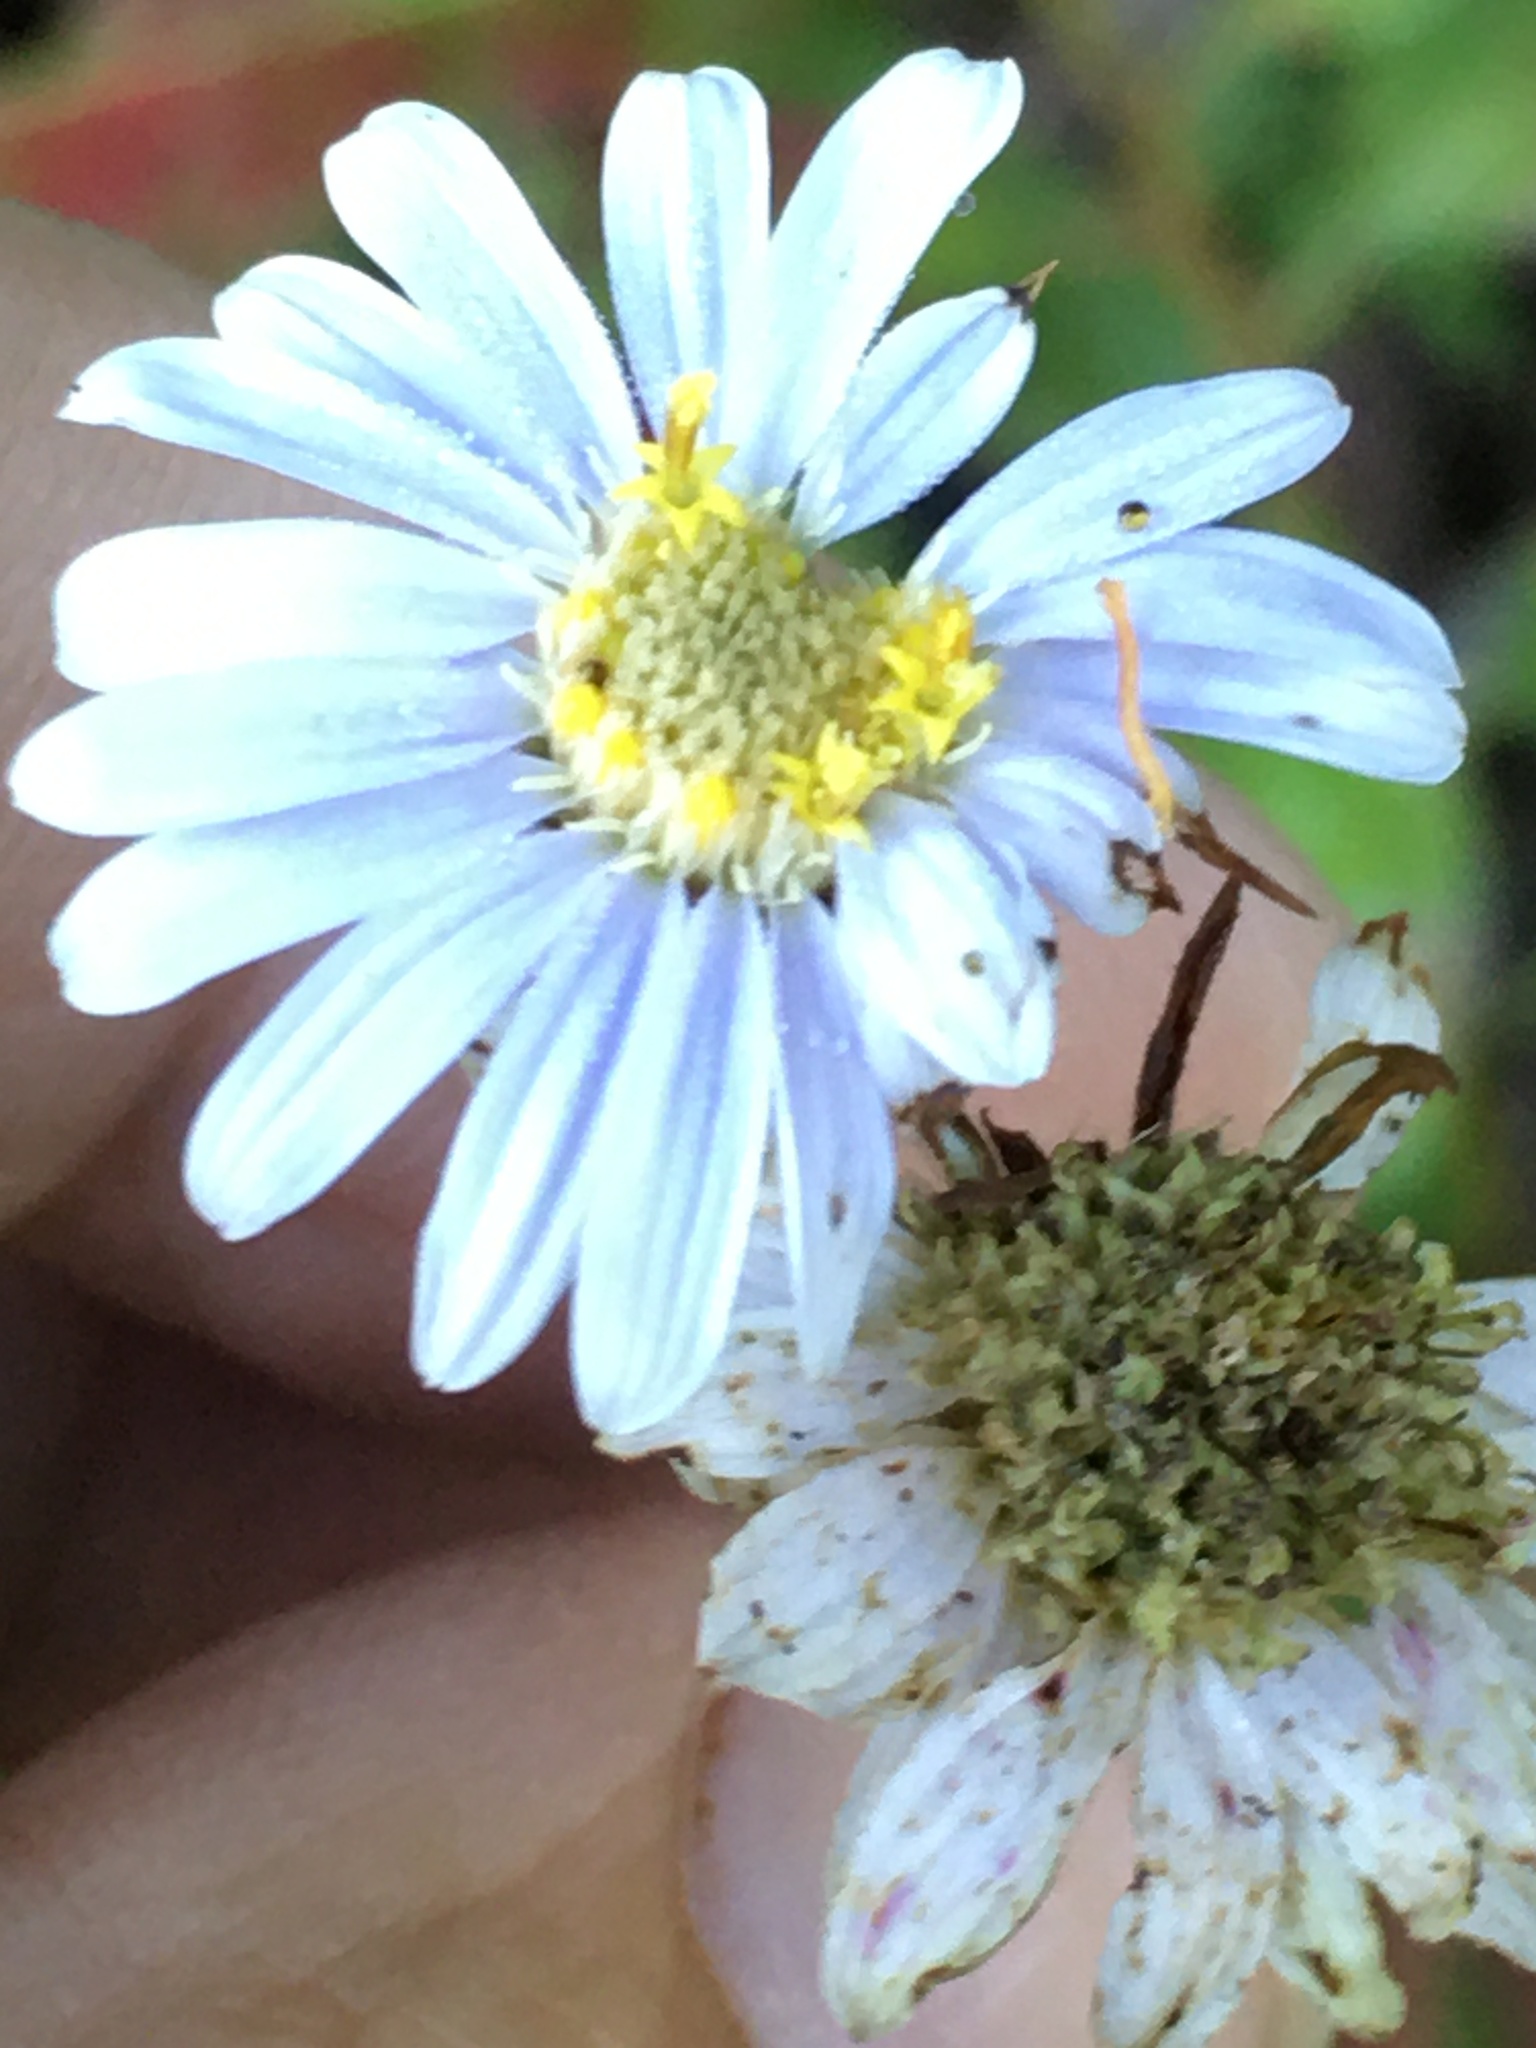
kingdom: Plantae
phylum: Tracheophyta
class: Magnoliopsida
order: Asterales
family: Asteraceae
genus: Eurybia
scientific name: Eurybia mirabilis
